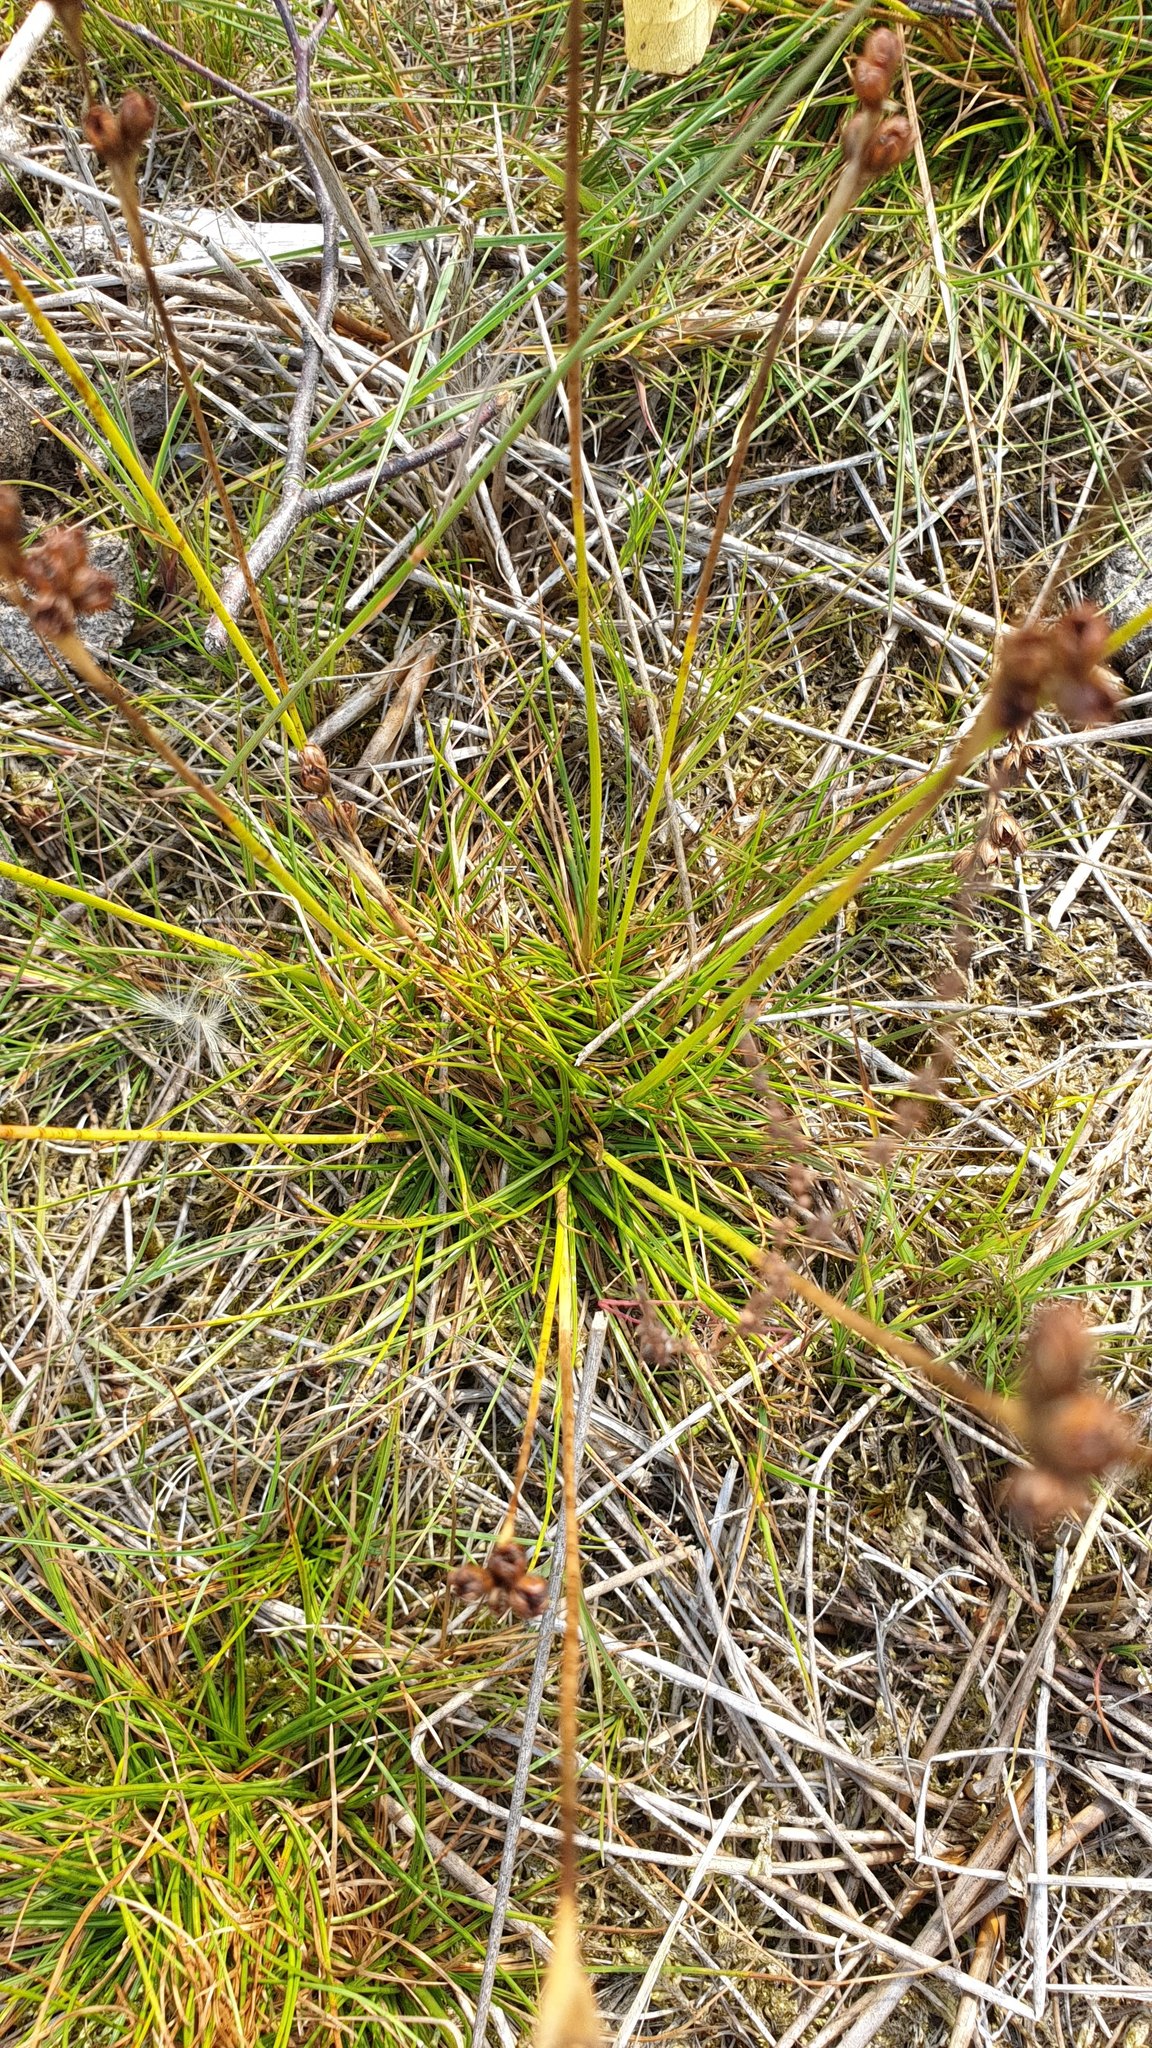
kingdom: Plantae
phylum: Tracheophyta
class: Liliopsida
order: Poales
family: Juncaceae
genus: Juncus
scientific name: Juncus squarrosus
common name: Heath rush
